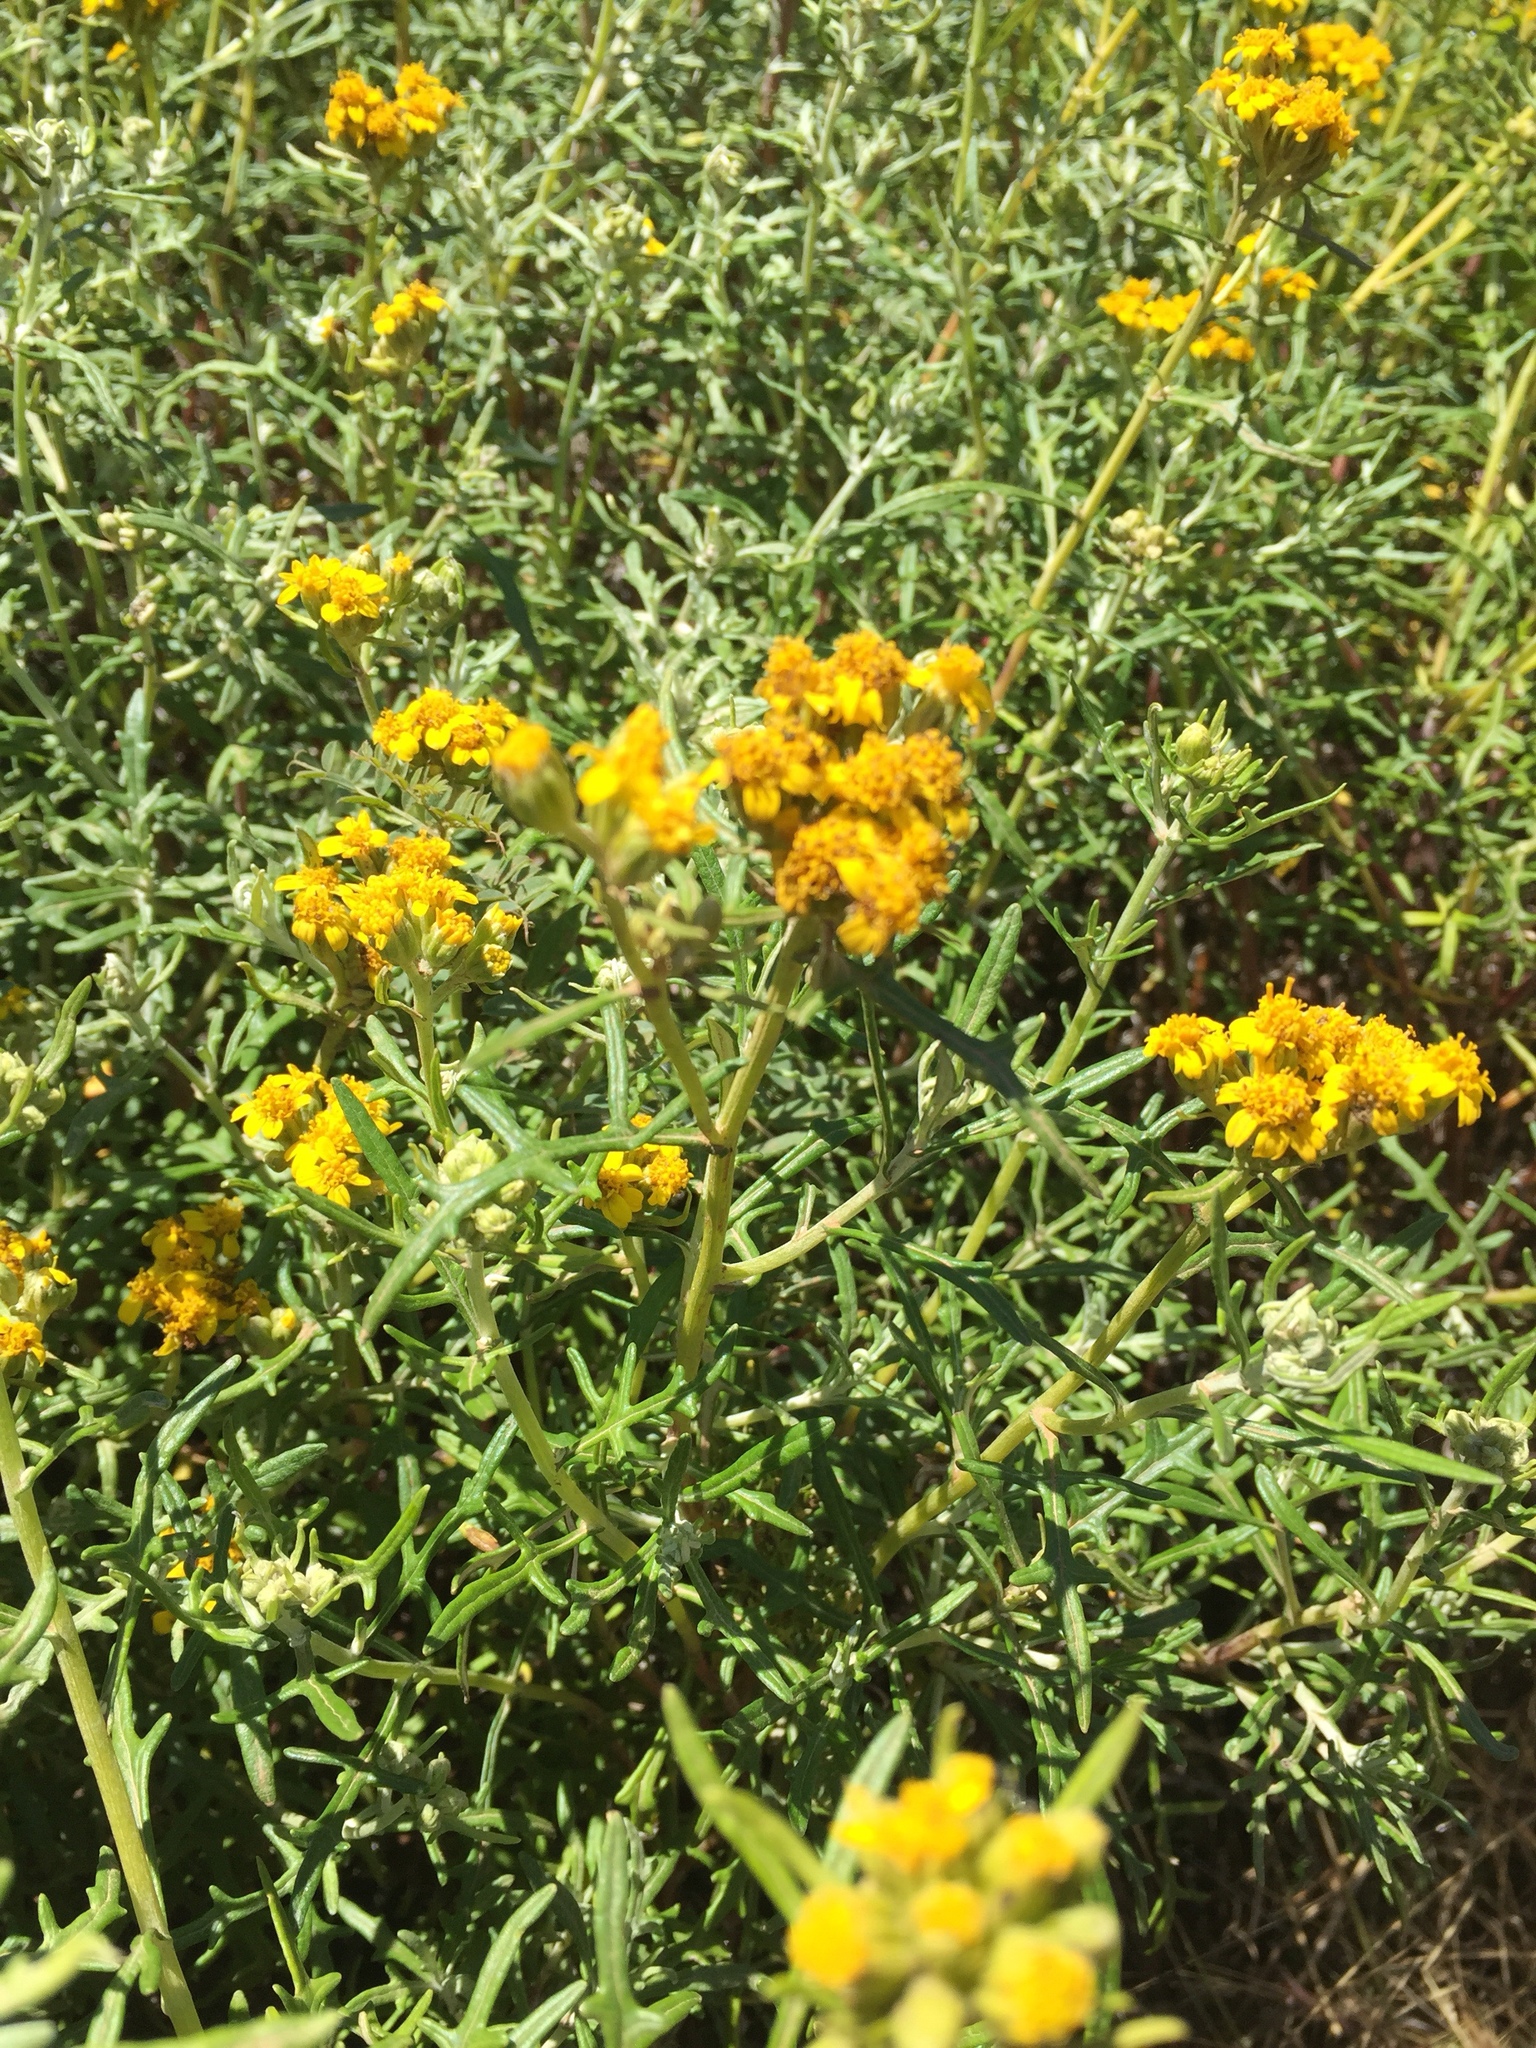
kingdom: Plantae
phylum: Tracheophyta
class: Magnoliopsida
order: Asterales
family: Asteraceae
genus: Eriophyllum
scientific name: Eriophyllum staechadifolium
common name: Lizardtail
